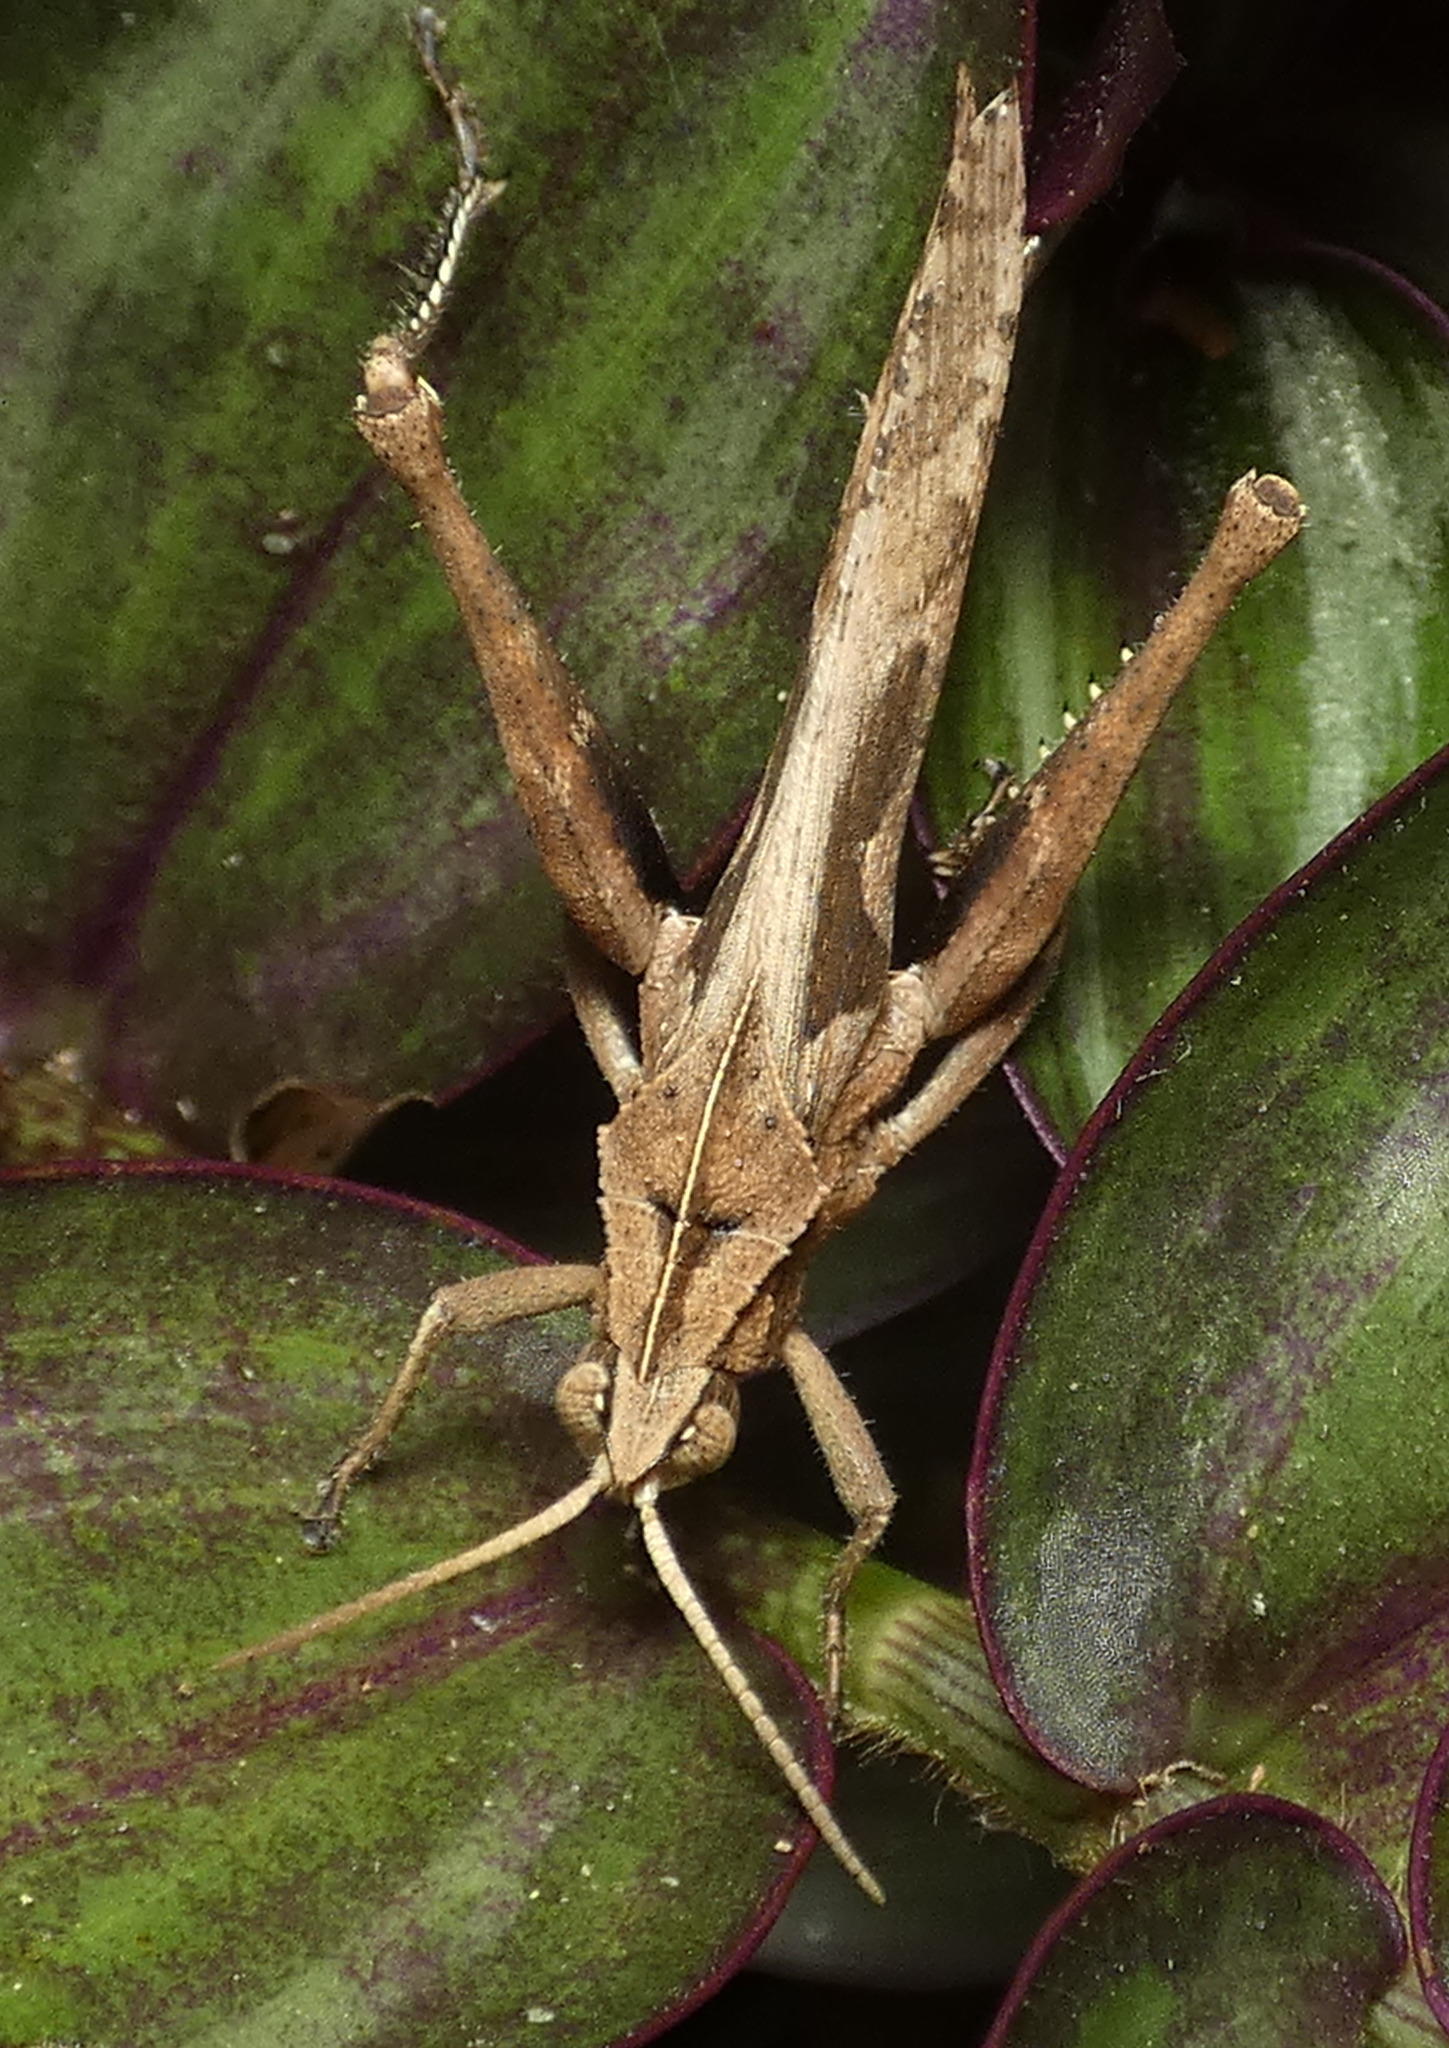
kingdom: Animalia
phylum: Arthropoda
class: Insecta
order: Orthoptera
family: Romaleidae
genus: Xyleus
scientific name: Xyleus discoideus
